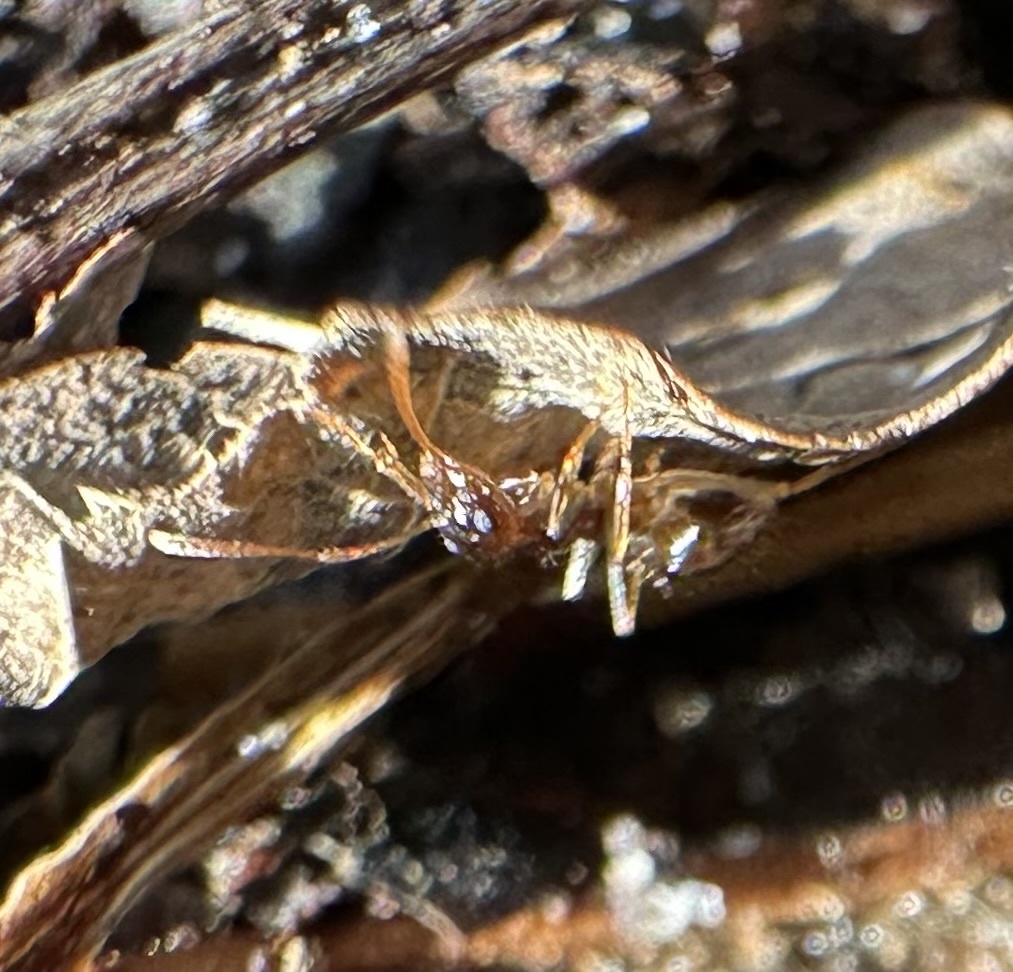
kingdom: Animalia
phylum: Arthropoda
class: Insecta
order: Hymenoptera
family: Formicidae
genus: Prenolepis
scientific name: Prenolepis imparis
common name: Small honey ant
